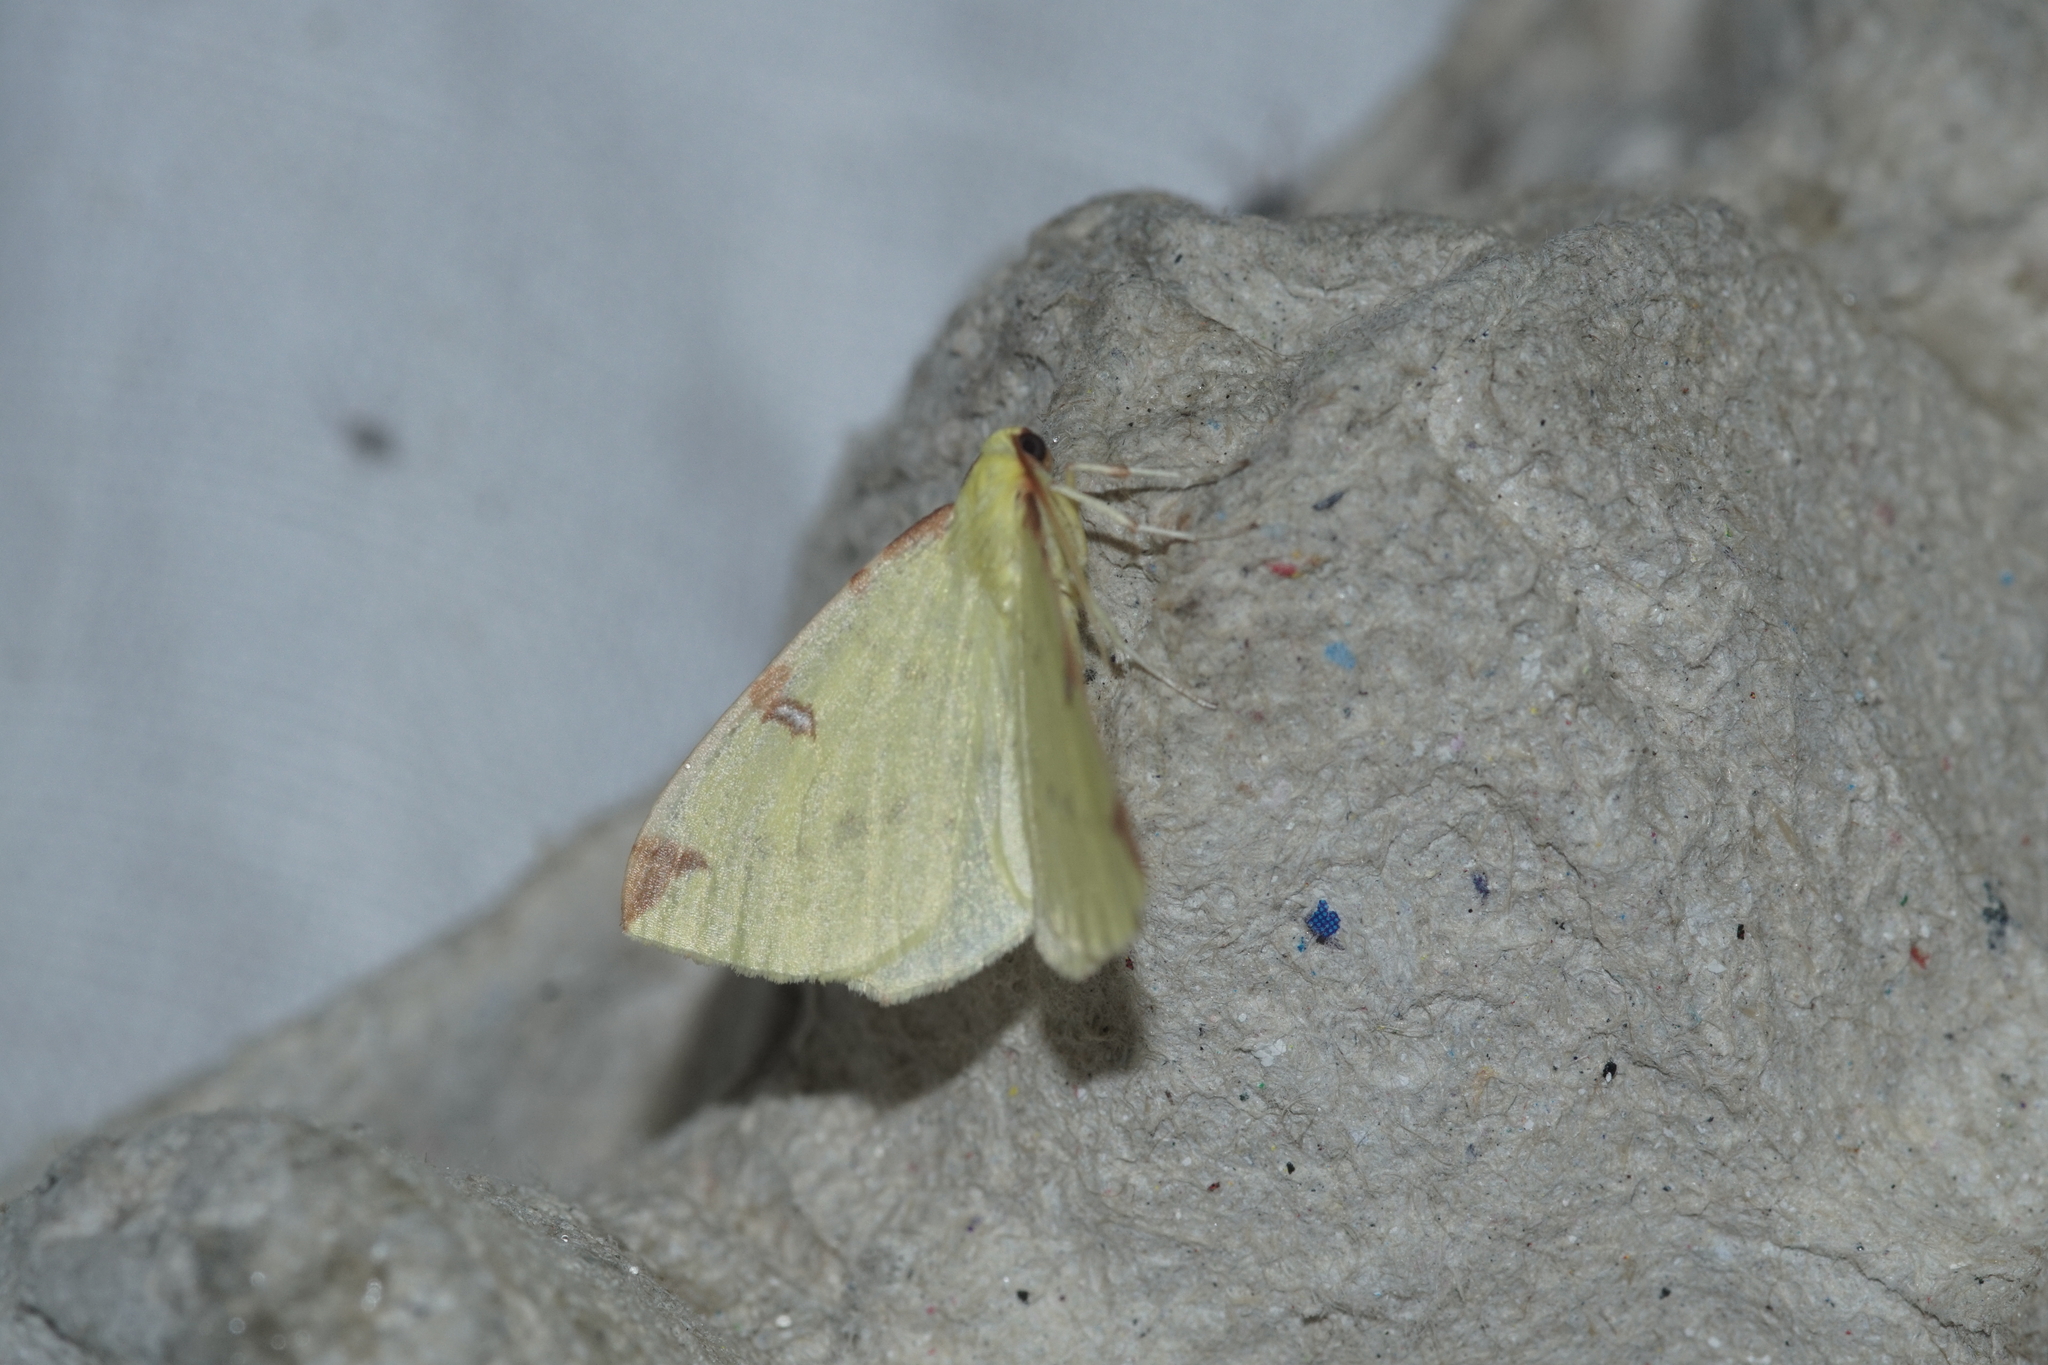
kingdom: Animalia
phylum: Arthropoda
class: Insecta
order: Lepidoptera
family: Geometridae
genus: Opisthograptis
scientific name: Opisthograptis luteolata
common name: Brimstone moth
